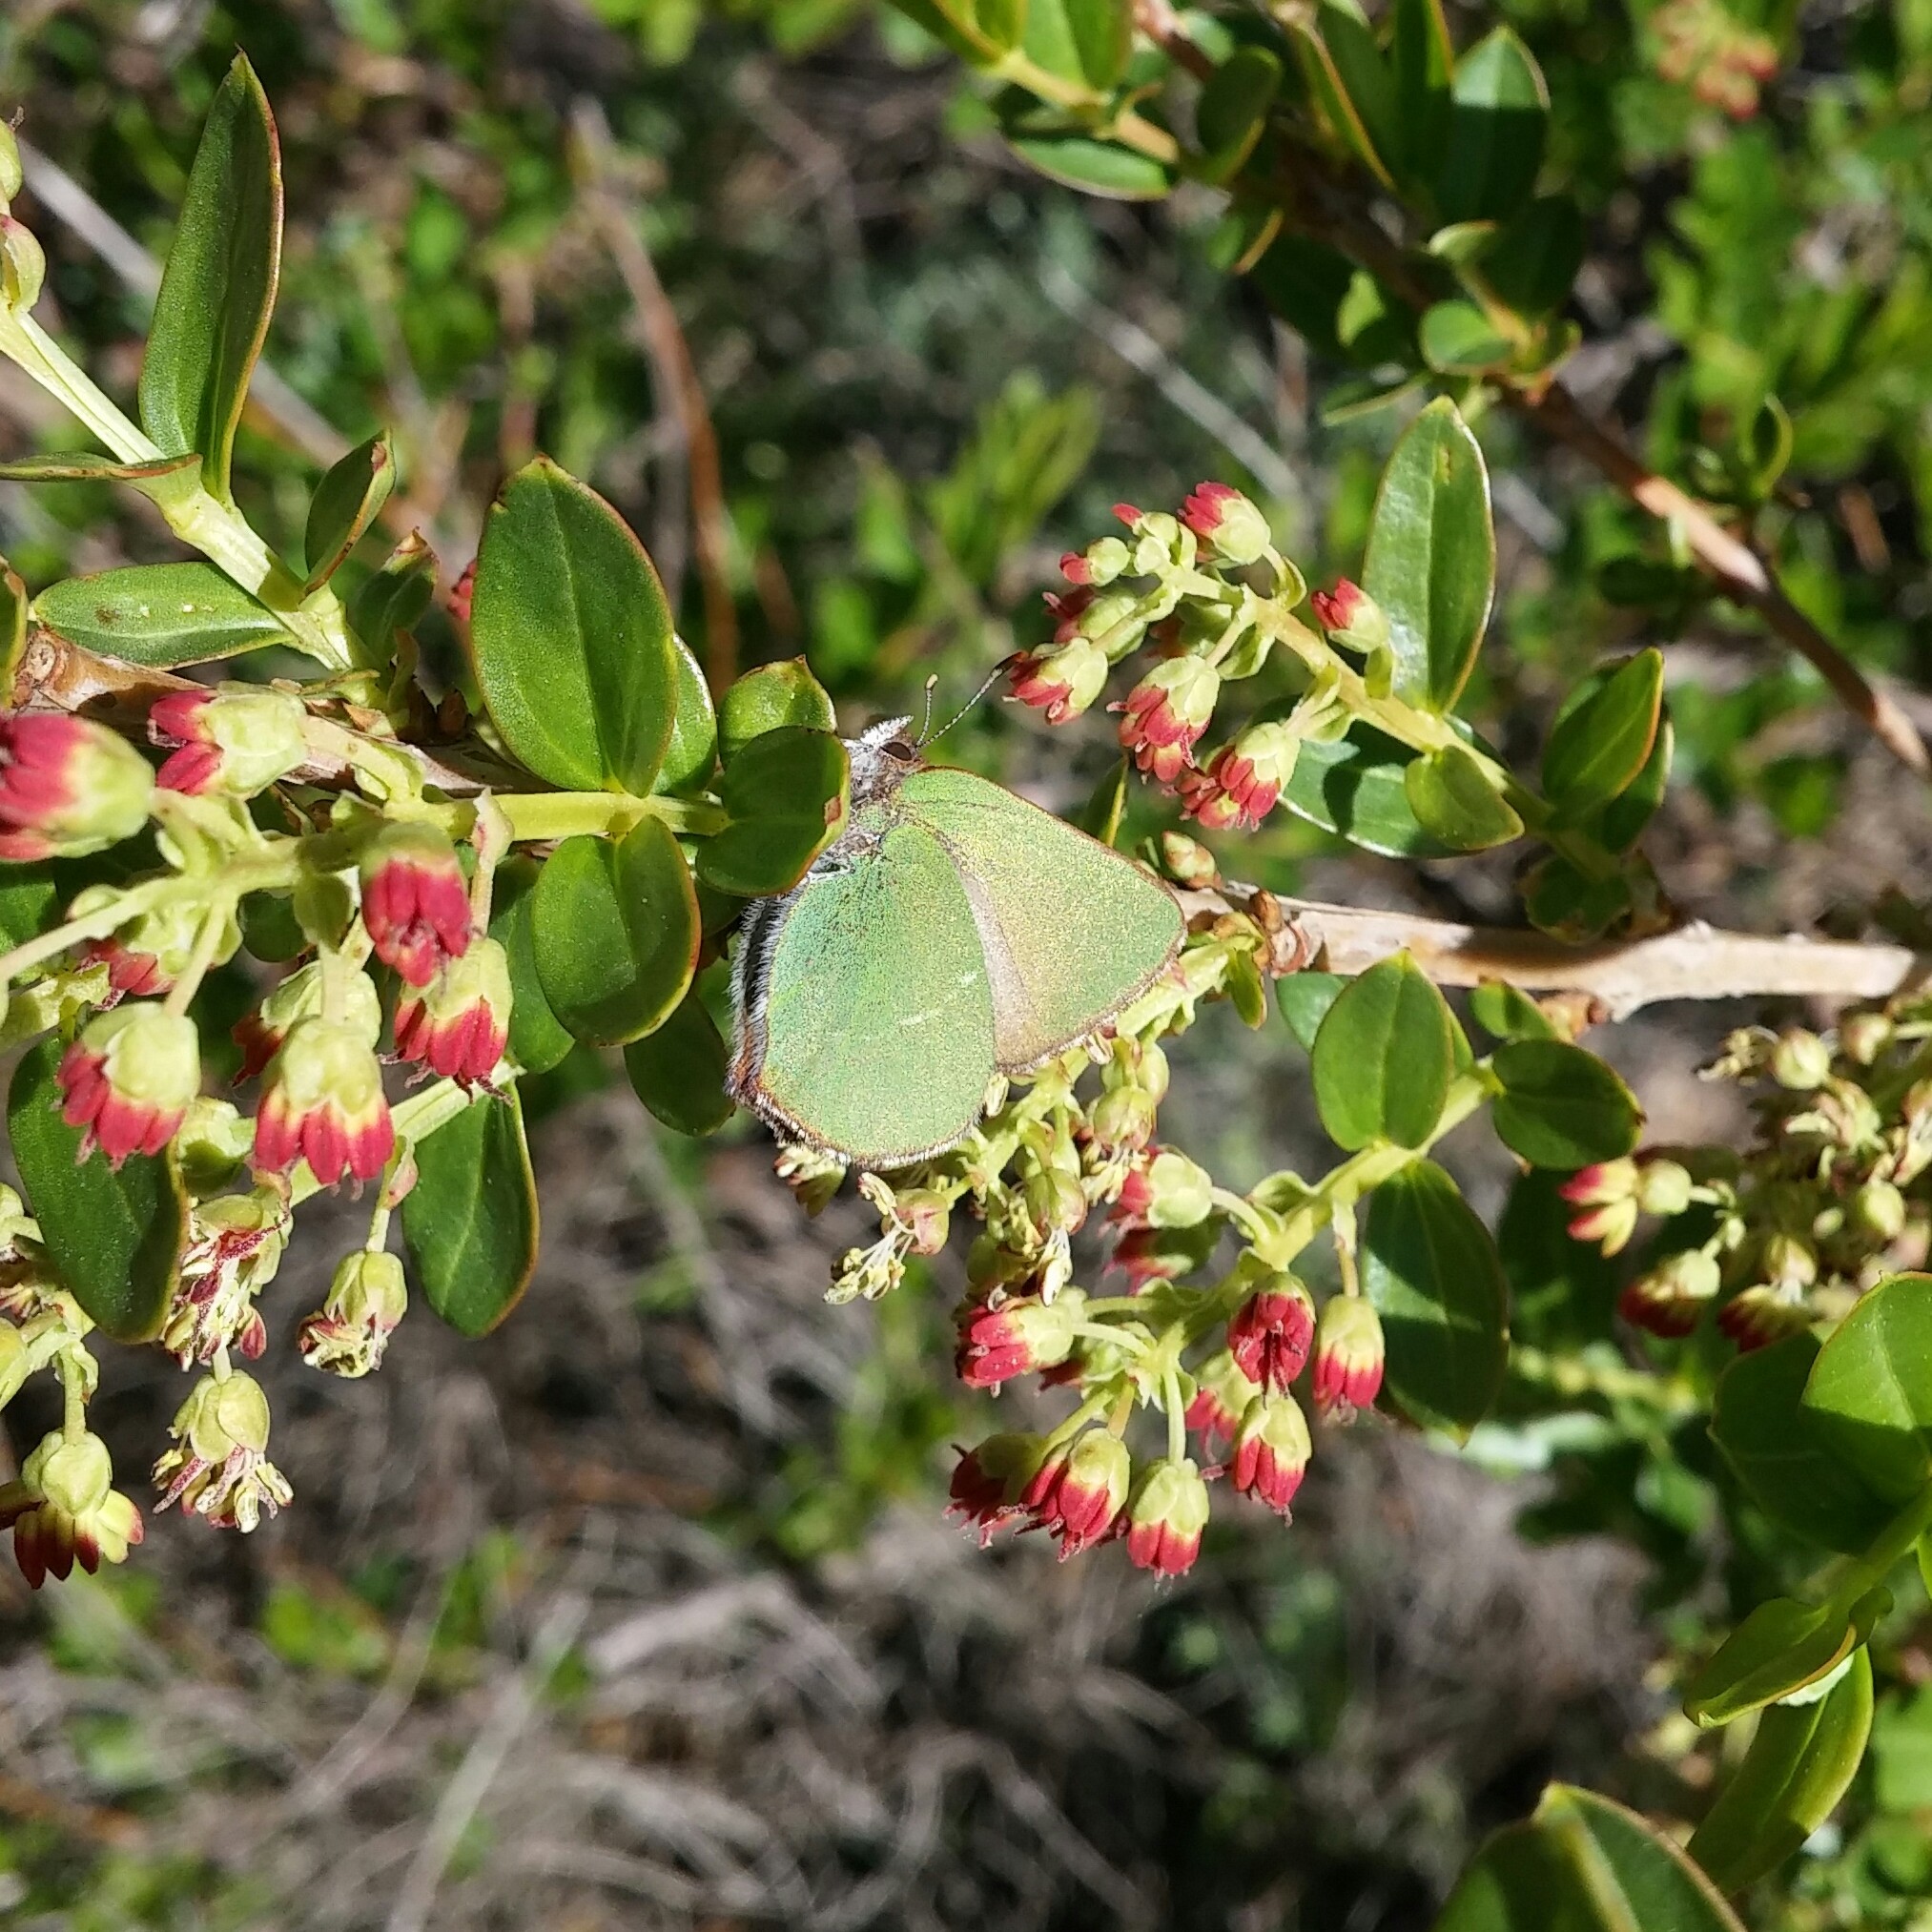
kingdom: Animalia
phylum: Arthropoda
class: Insecta
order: Lepidoptera
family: Lycaenidae
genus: Callophrys
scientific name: Callophrys avis
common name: Chapman's green hairstreak
